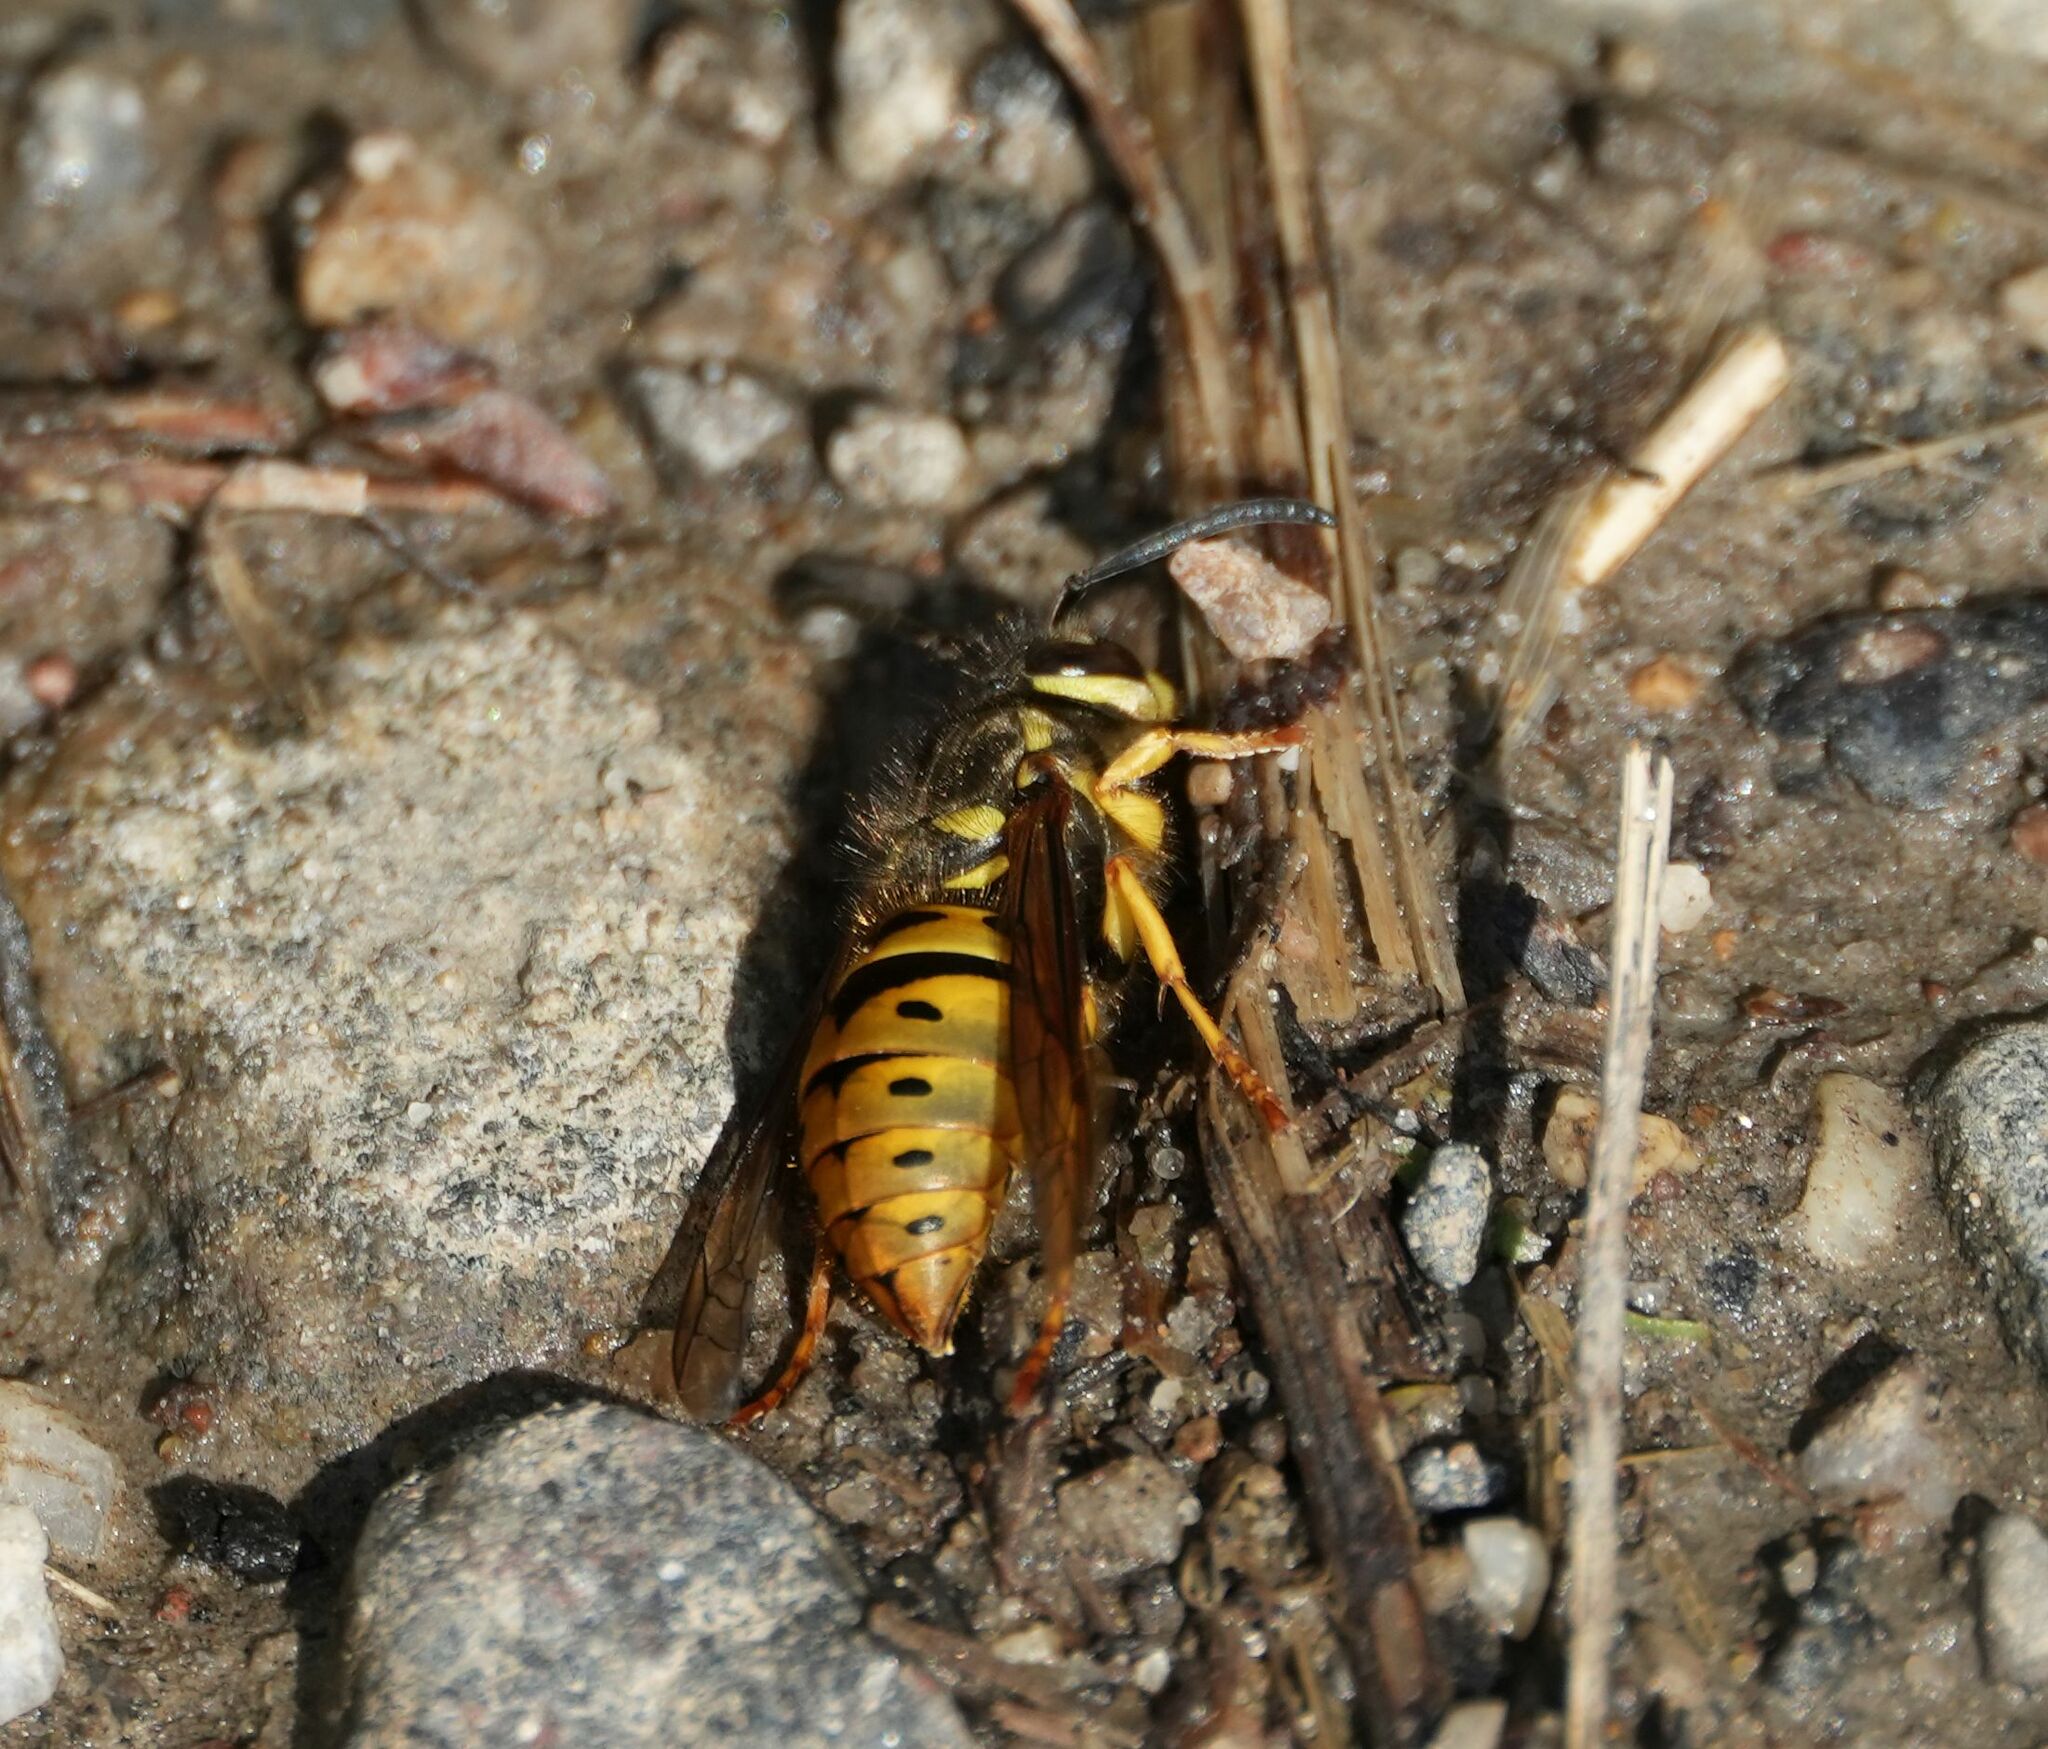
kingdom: Animalia
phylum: Arthropoda
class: Insecta
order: Hymenoptera
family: Vespidae
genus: Vespula
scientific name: Vespula maculifrons
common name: Eastern yellowjacket
